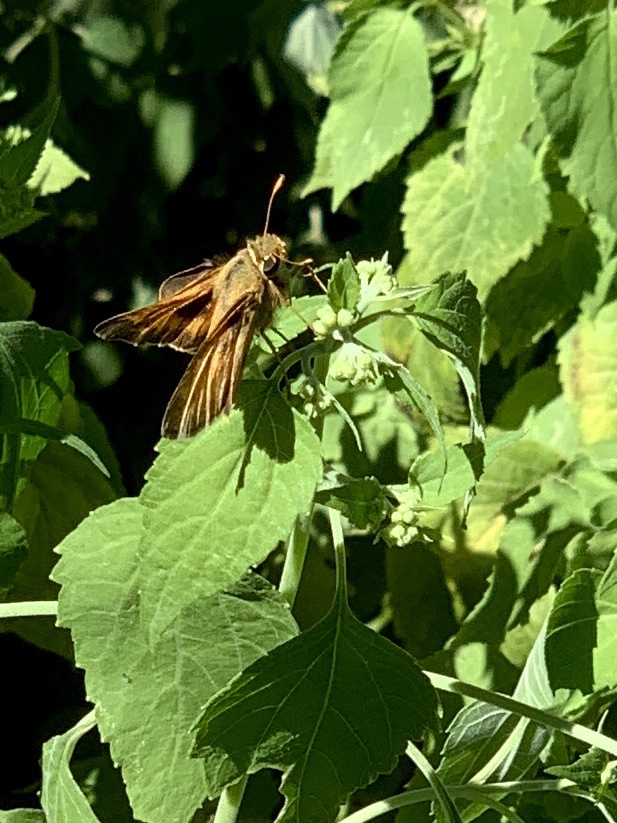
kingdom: Animalia
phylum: Arthropoda
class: Insecta
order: Lepidoptera
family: Hesperiidae
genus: Atalopedes
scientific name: Atalopedes
